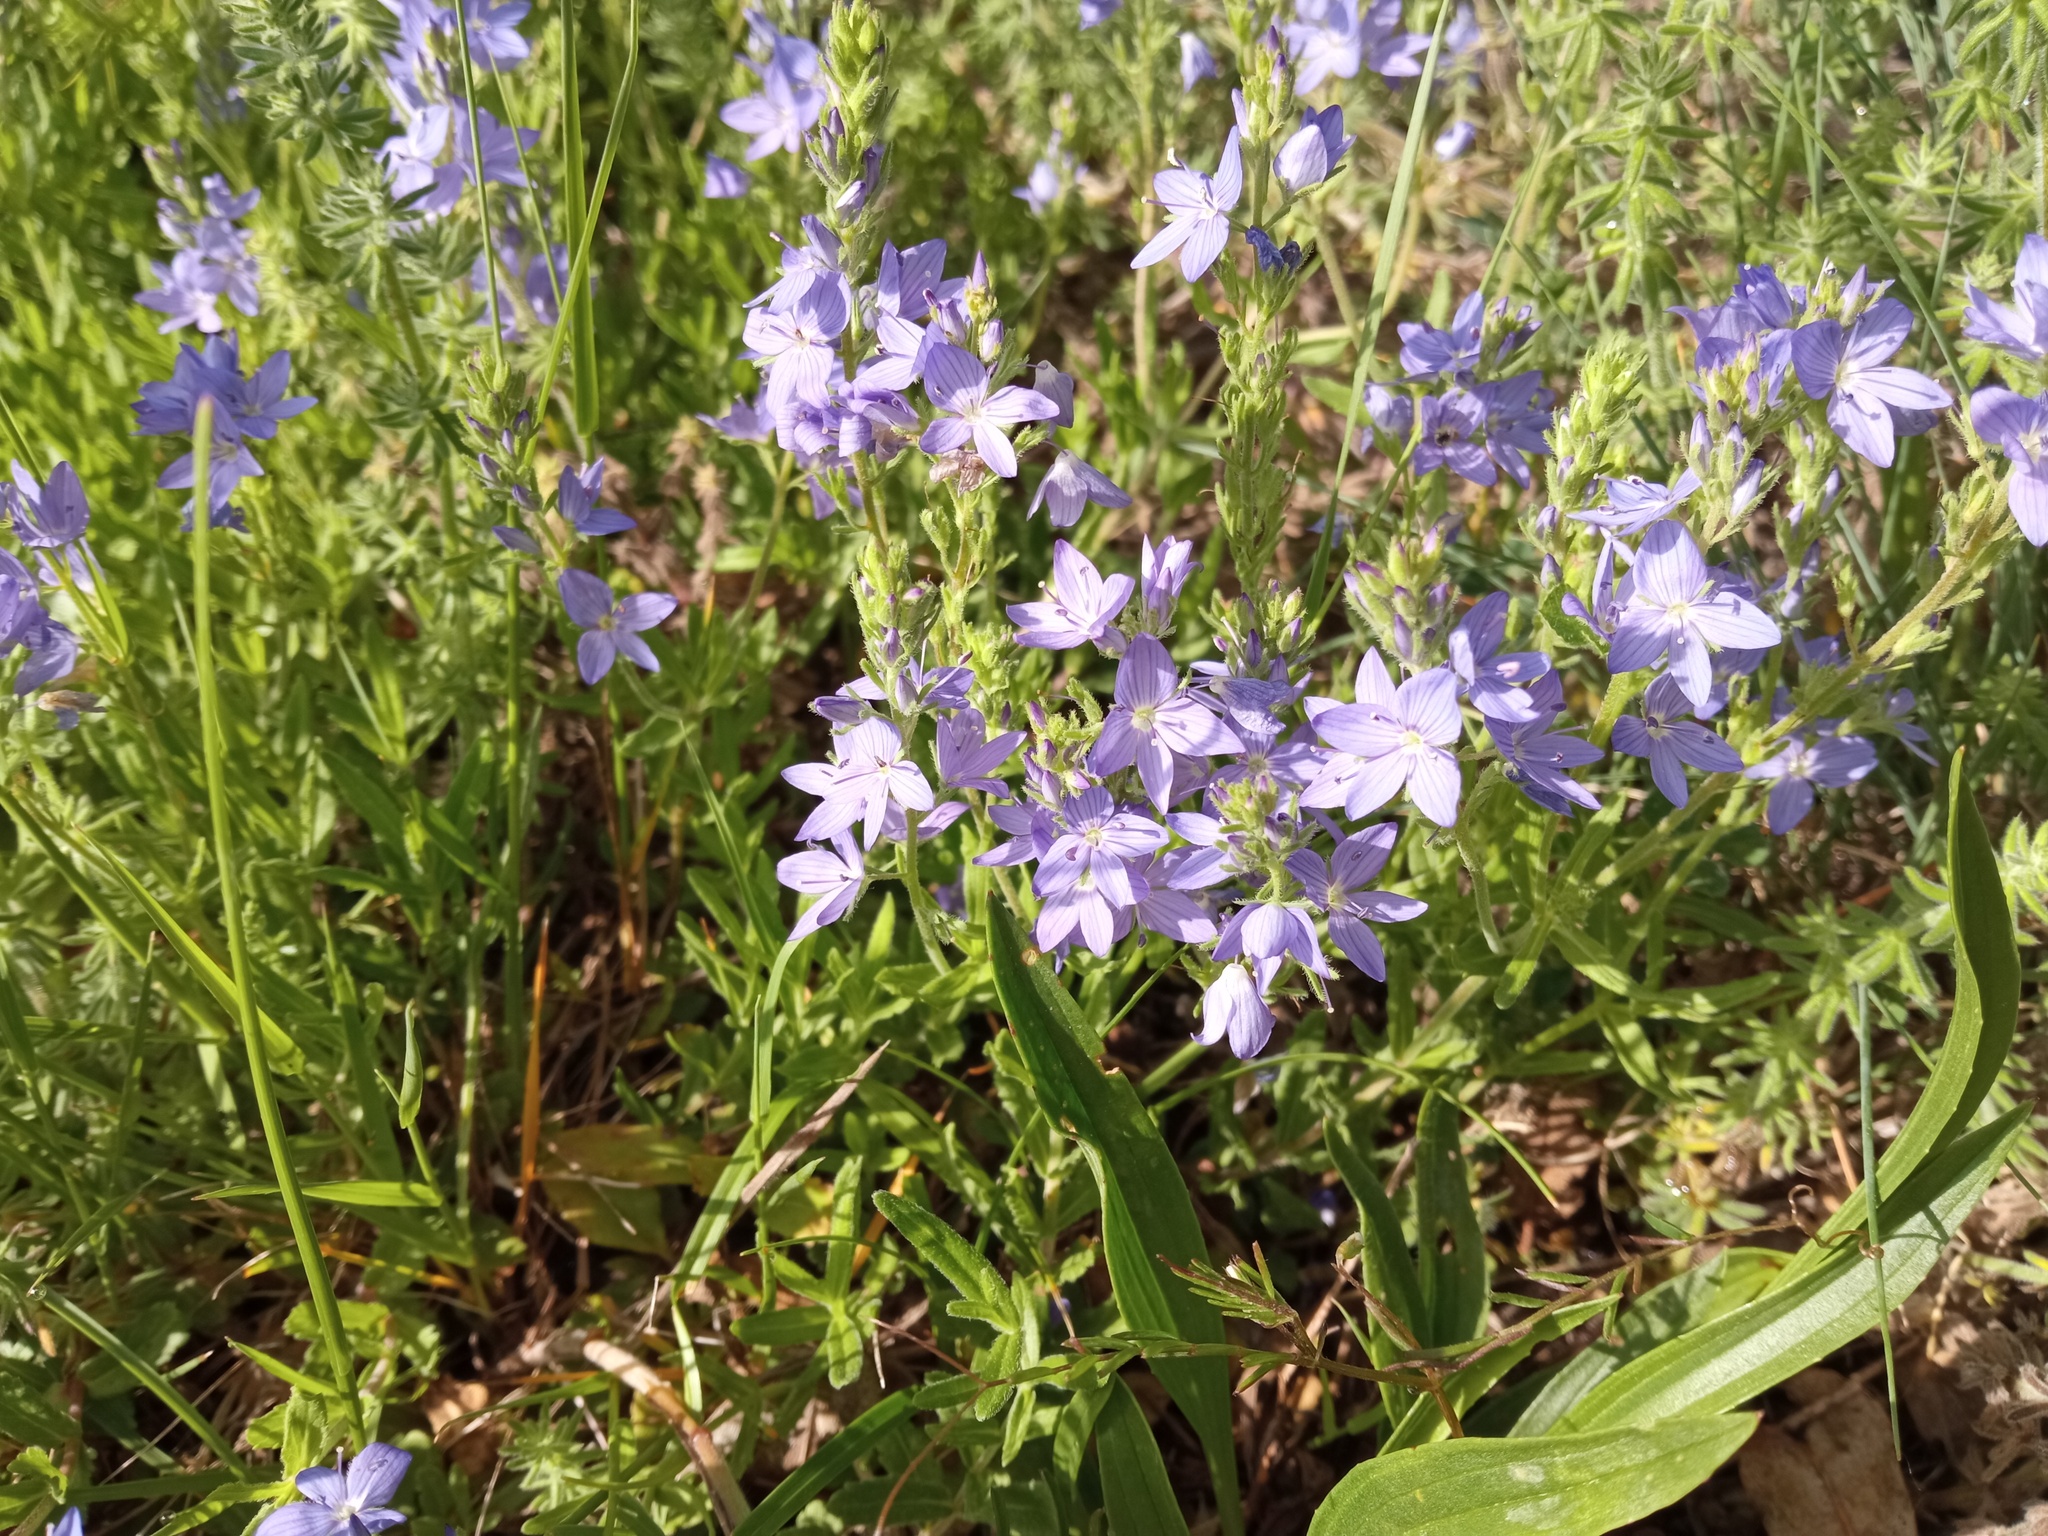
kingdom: Plantae
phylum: Tracheophyta
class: Magnoliopsida
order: Lamiales
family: Plantaginaceae
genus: Veronica
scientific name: Veronica orsiniana
